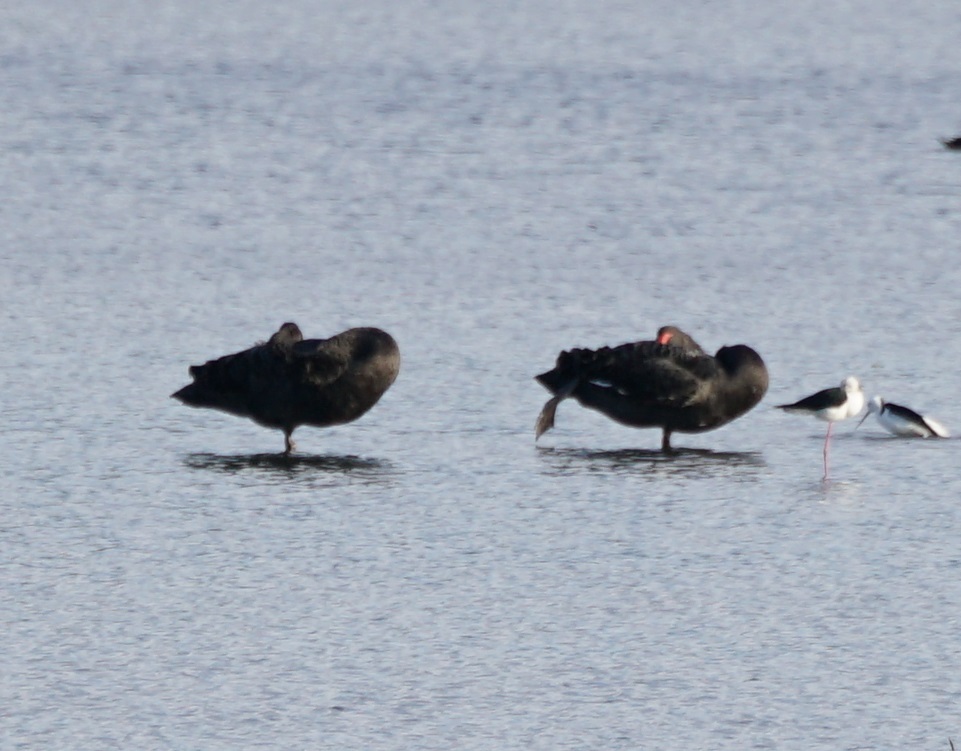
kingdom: Animalia
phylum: Chordata
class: Aves
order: Anseriformes
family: Anatidae
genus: Cygnus
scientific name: Cygnus atratus
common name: Black swan
